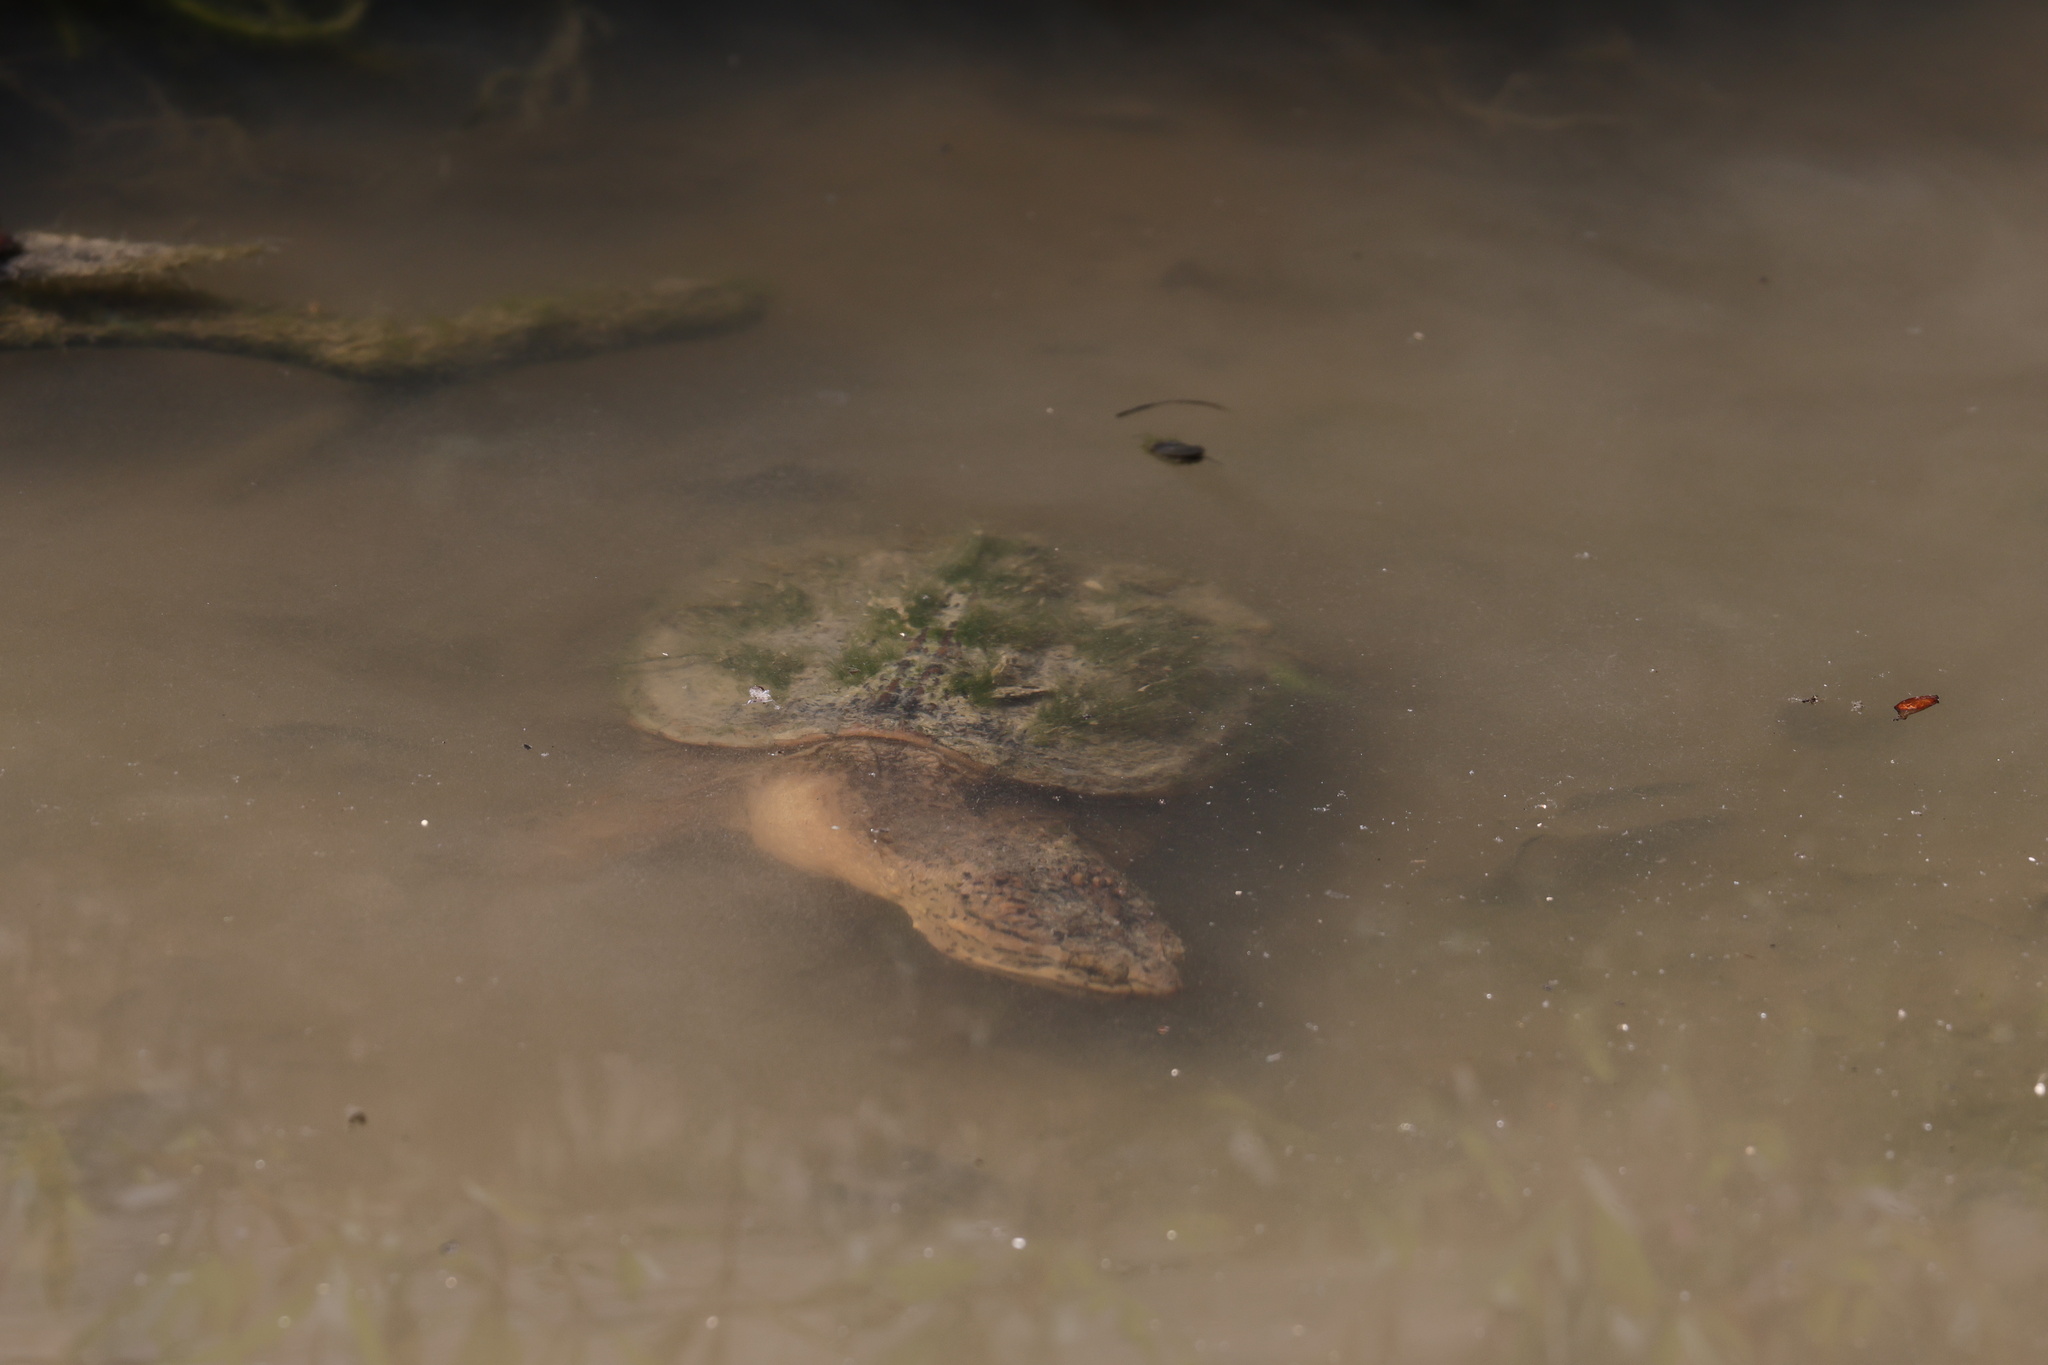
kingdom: Animalia
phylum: Chordata
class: Testudines
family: Chelydridae
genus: Chelydra
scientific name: Chelydra serpentina
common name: Common snapping turtle
